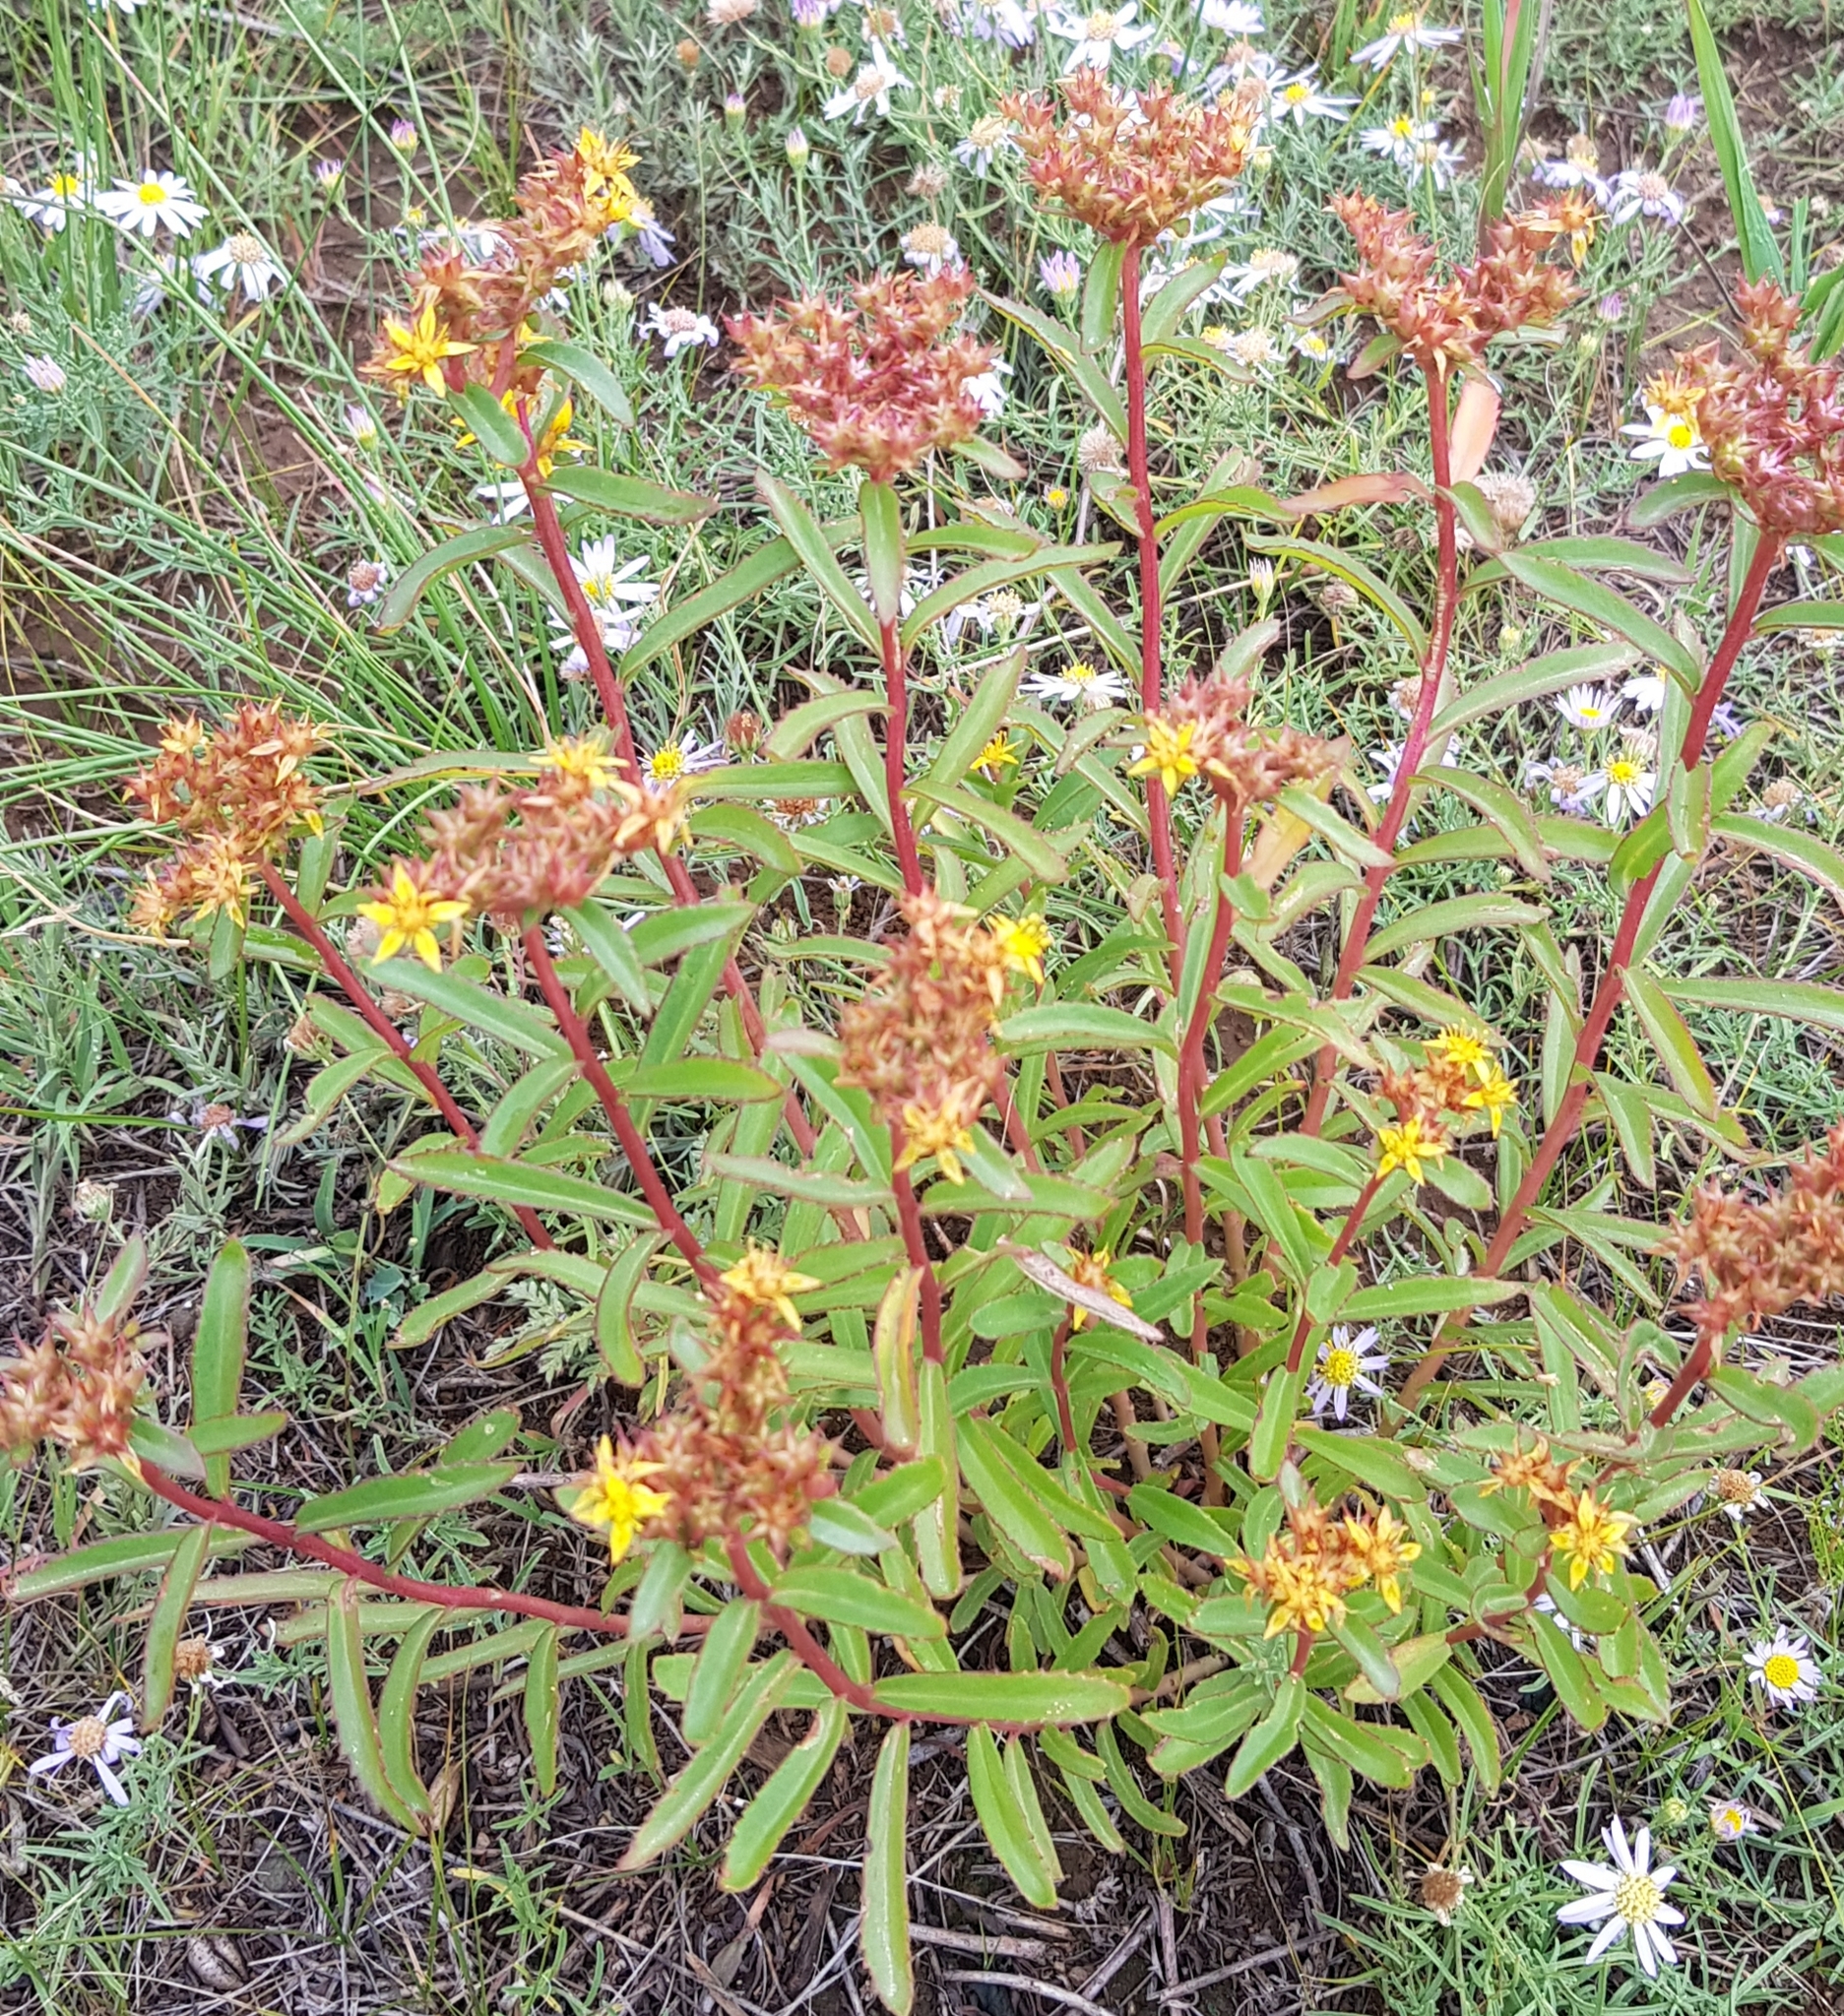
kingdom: Plantae
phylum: Tracheophyta
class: Magnoliopsida
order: Saxifragales
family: Crassulaceae
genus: Phedimus
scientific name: Phedimus aizoon
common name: Orpin aizoon
